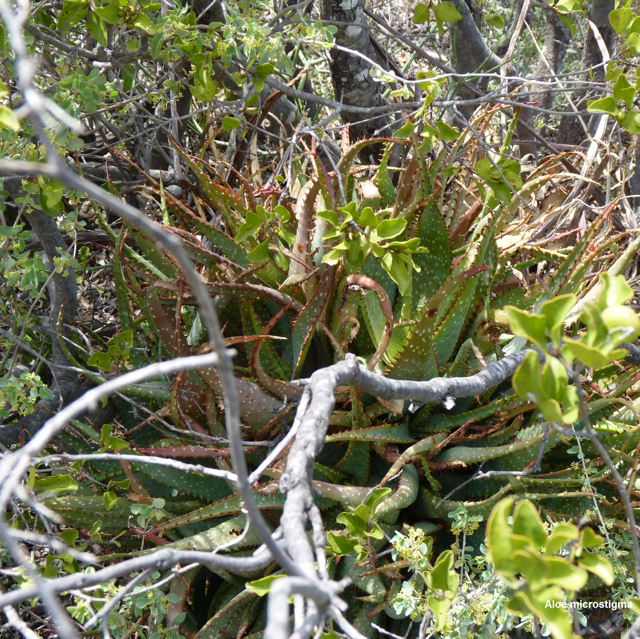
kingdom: Plantae
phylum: Tracheophyta
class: Liliopsida
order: Asparagales
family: Asphodelaceae
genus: Aloe
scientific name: Aloe microstigma
